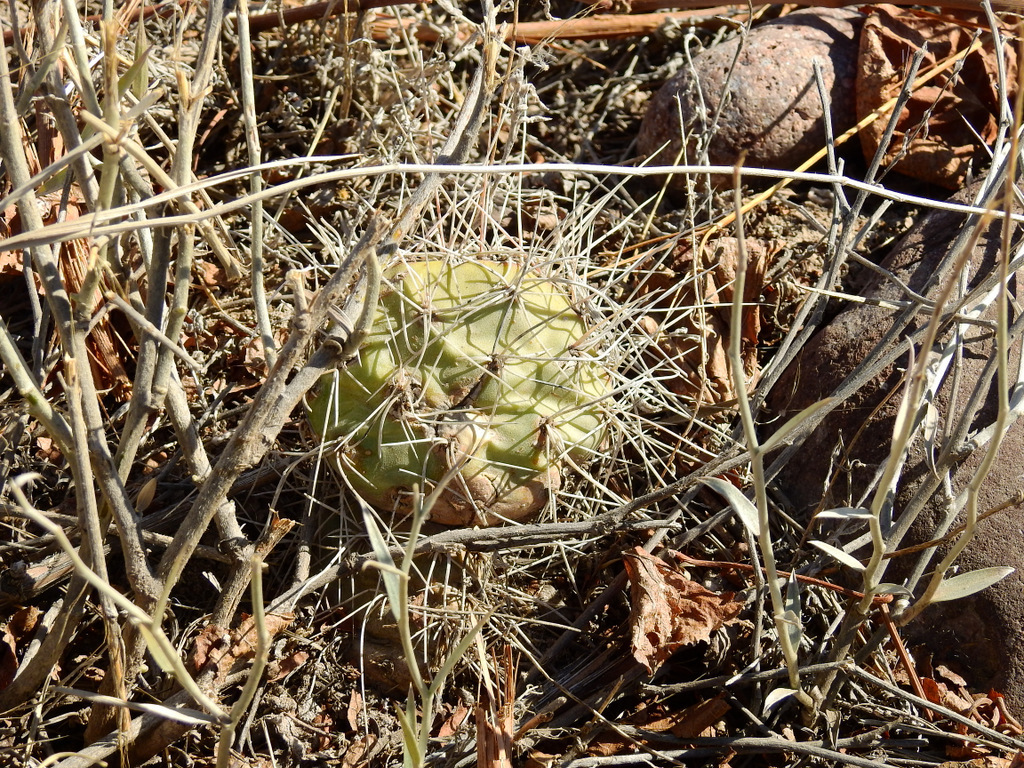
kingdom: Plantae
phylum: Tracheophyta
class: Magnoliopsida
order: Caryophyllales
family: Cactaceae
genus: Opuntia
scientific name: Opuntia sulphurea
